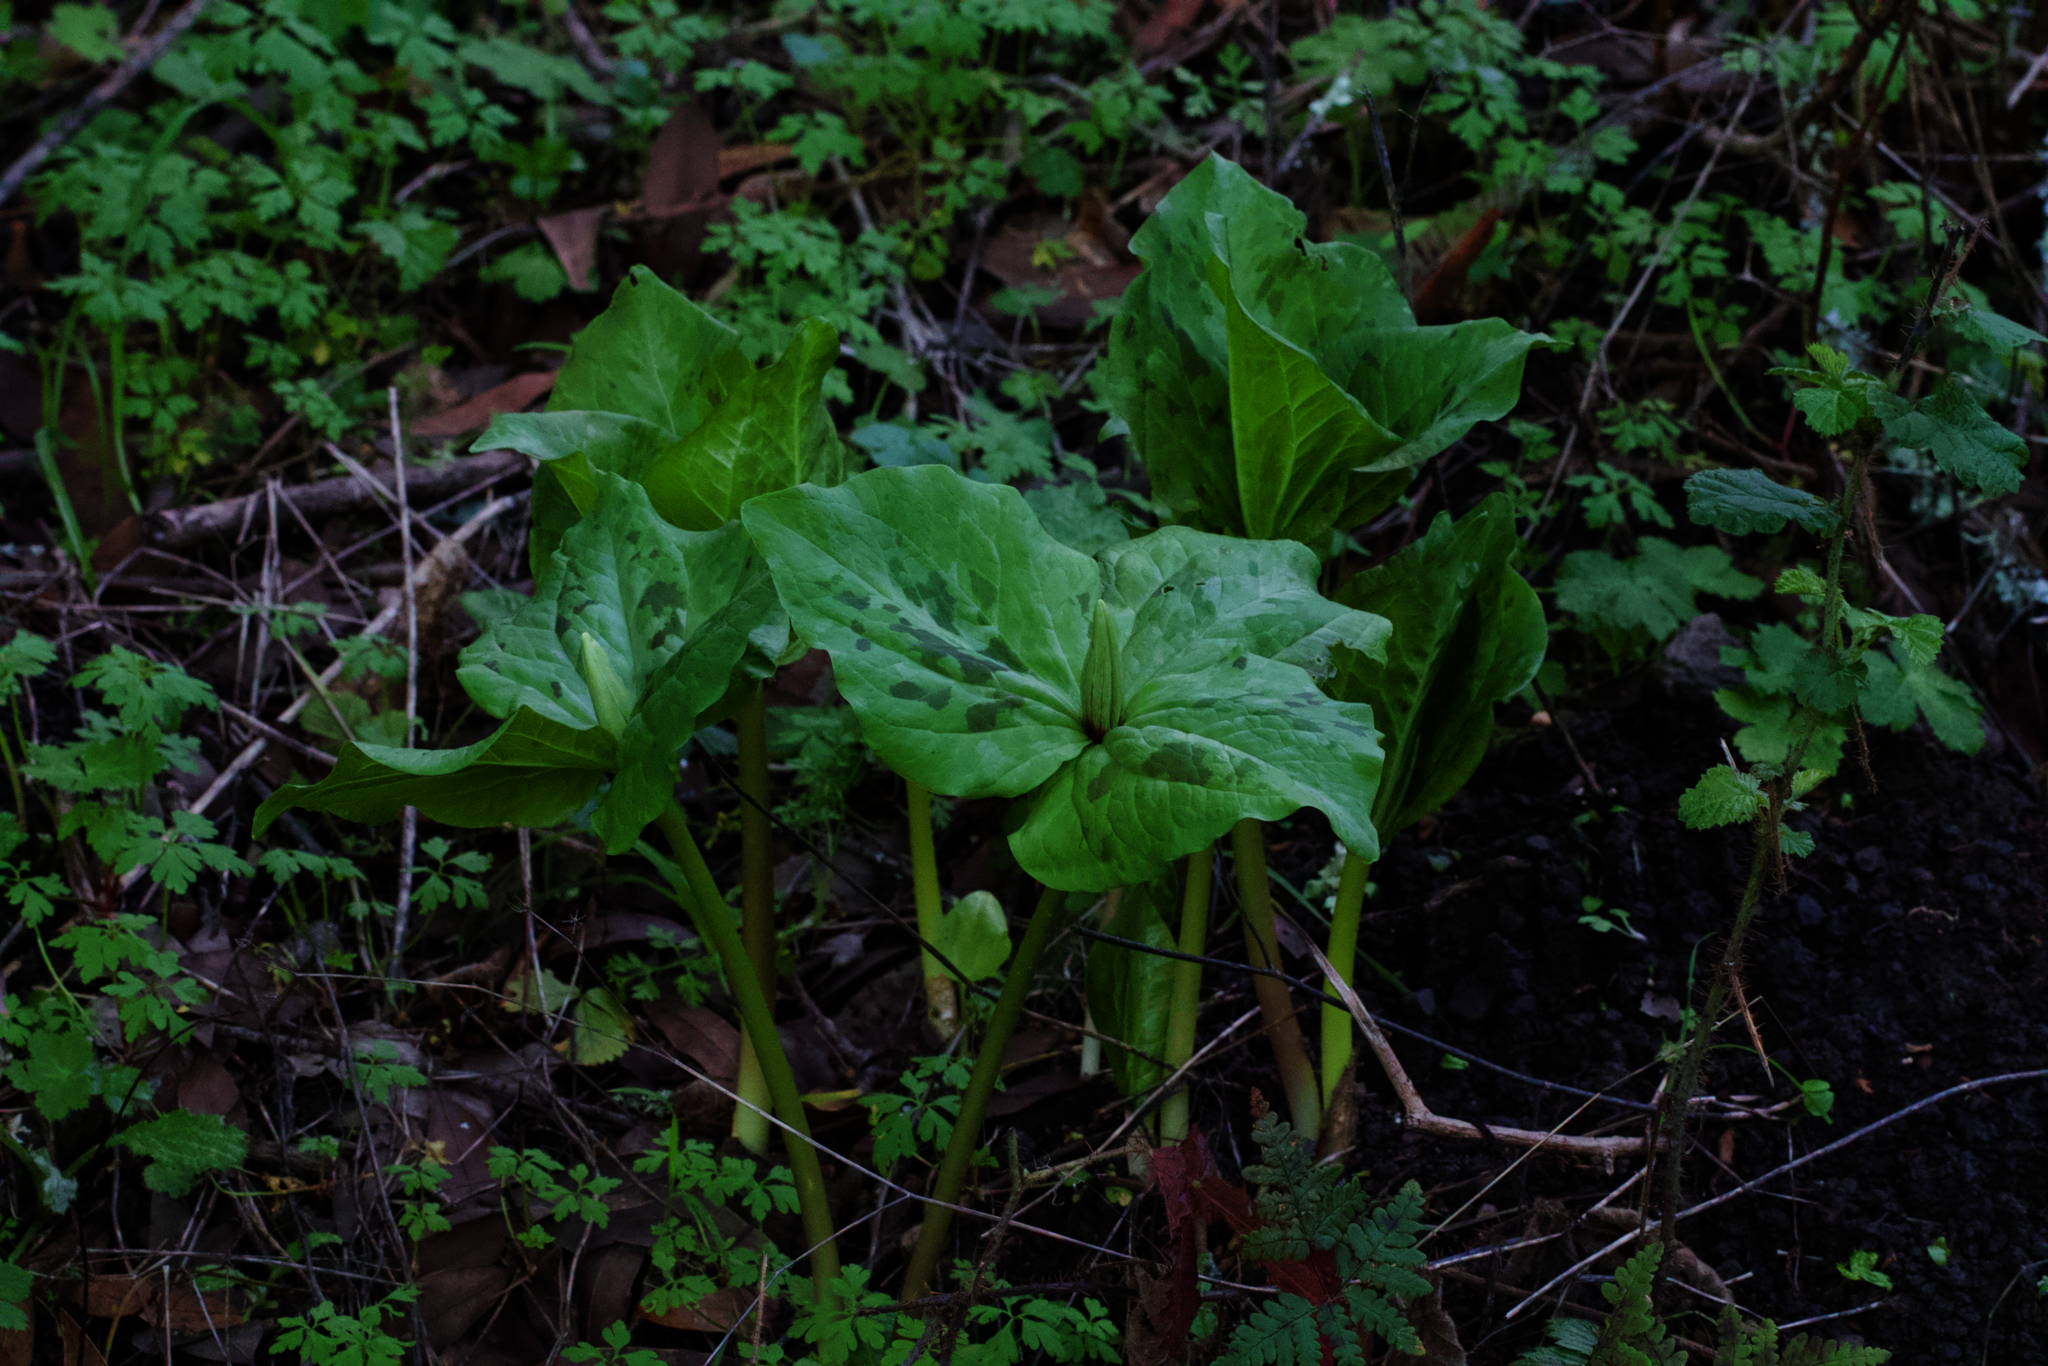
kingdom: Plantae
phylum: Tracheophyta
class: Liliopsida
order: Liliales
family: Melanthiaceae
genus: Trillium
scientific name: Trillium chloropetalum
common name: Giant trillium
